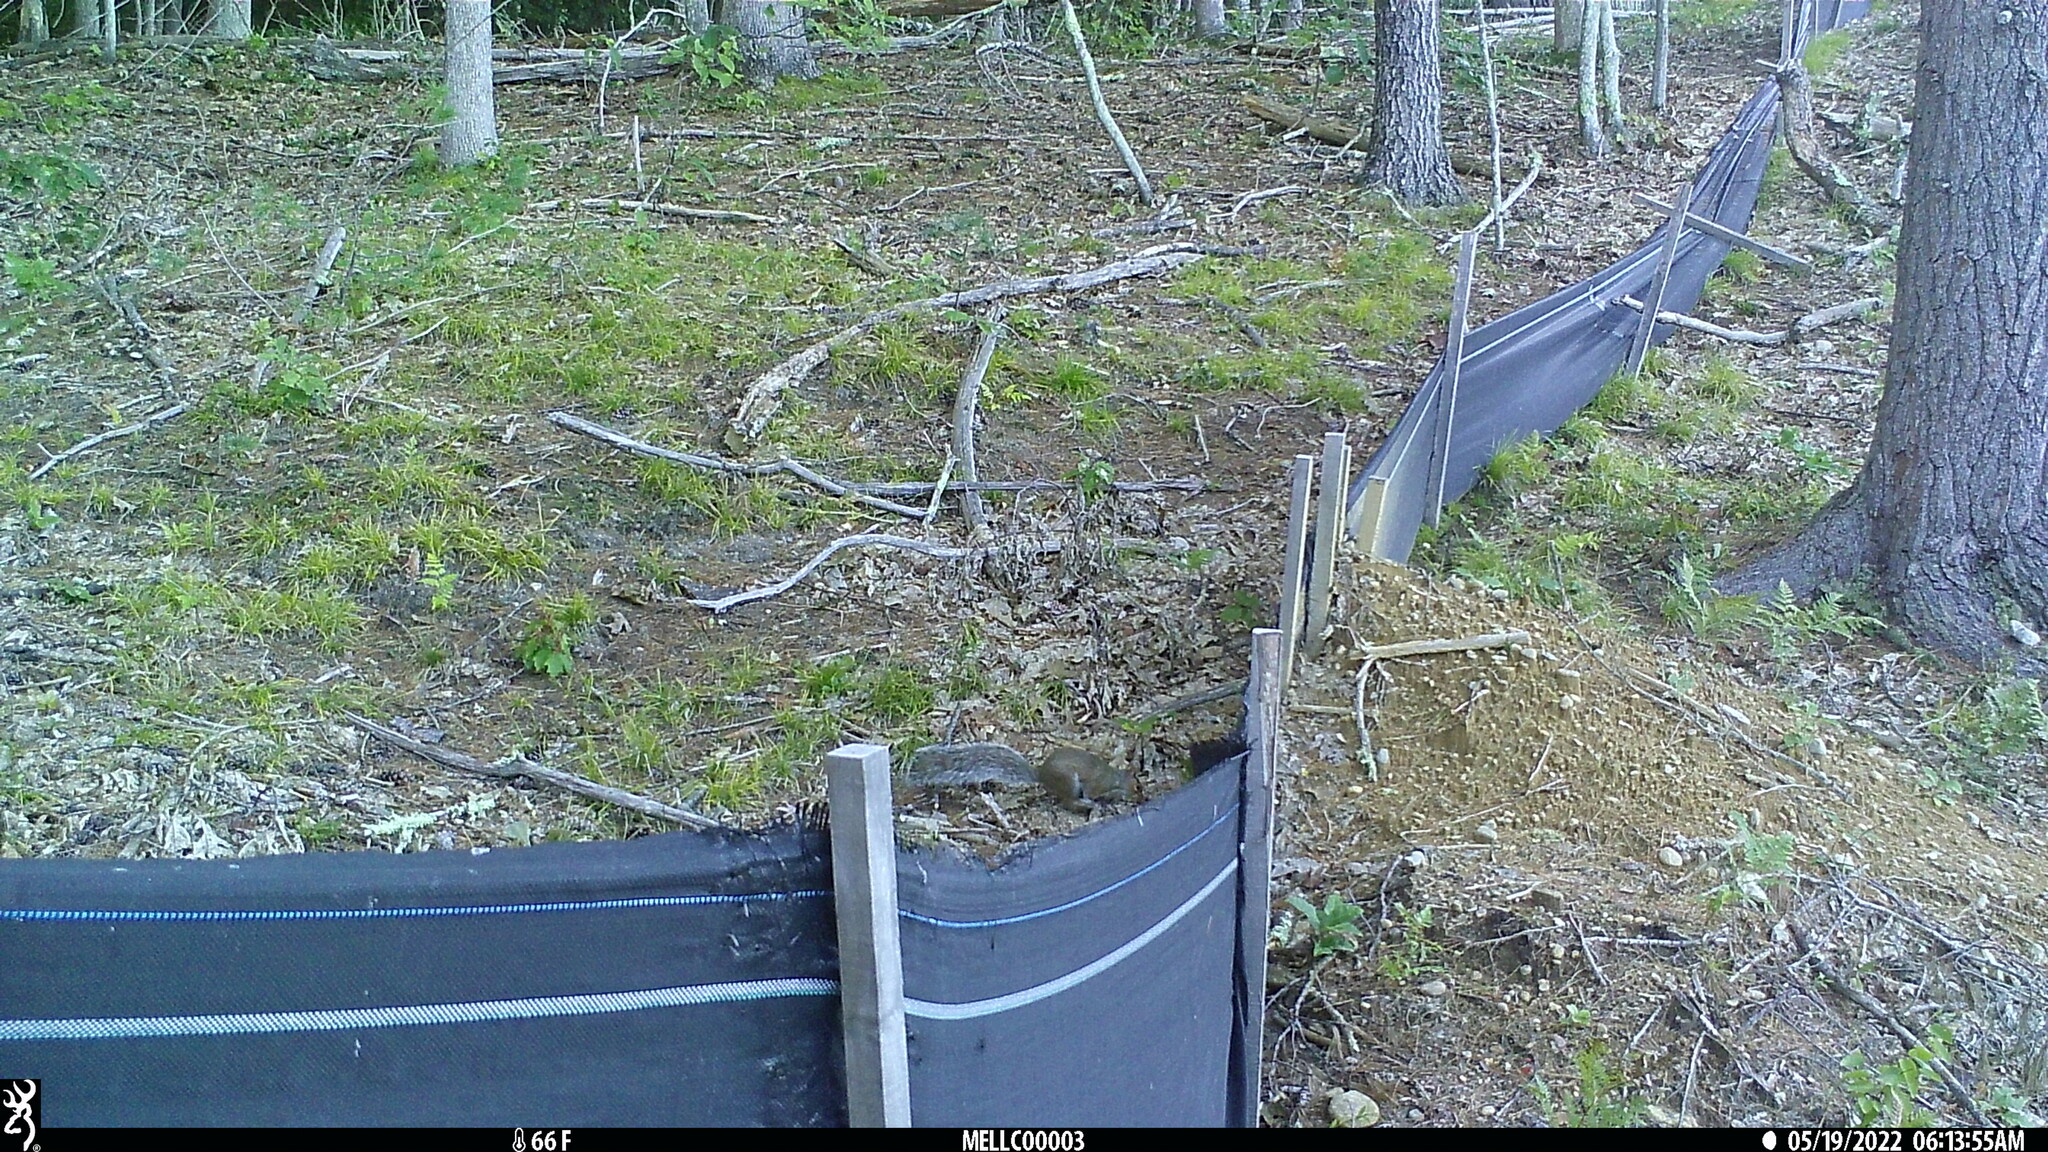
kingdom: Animalia
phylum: Chordata
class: Mammalia
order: Rodentia
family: Sciuridae
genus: Sciurus
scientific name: Sciurus carolinensis
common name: Eastern gray squirrel
